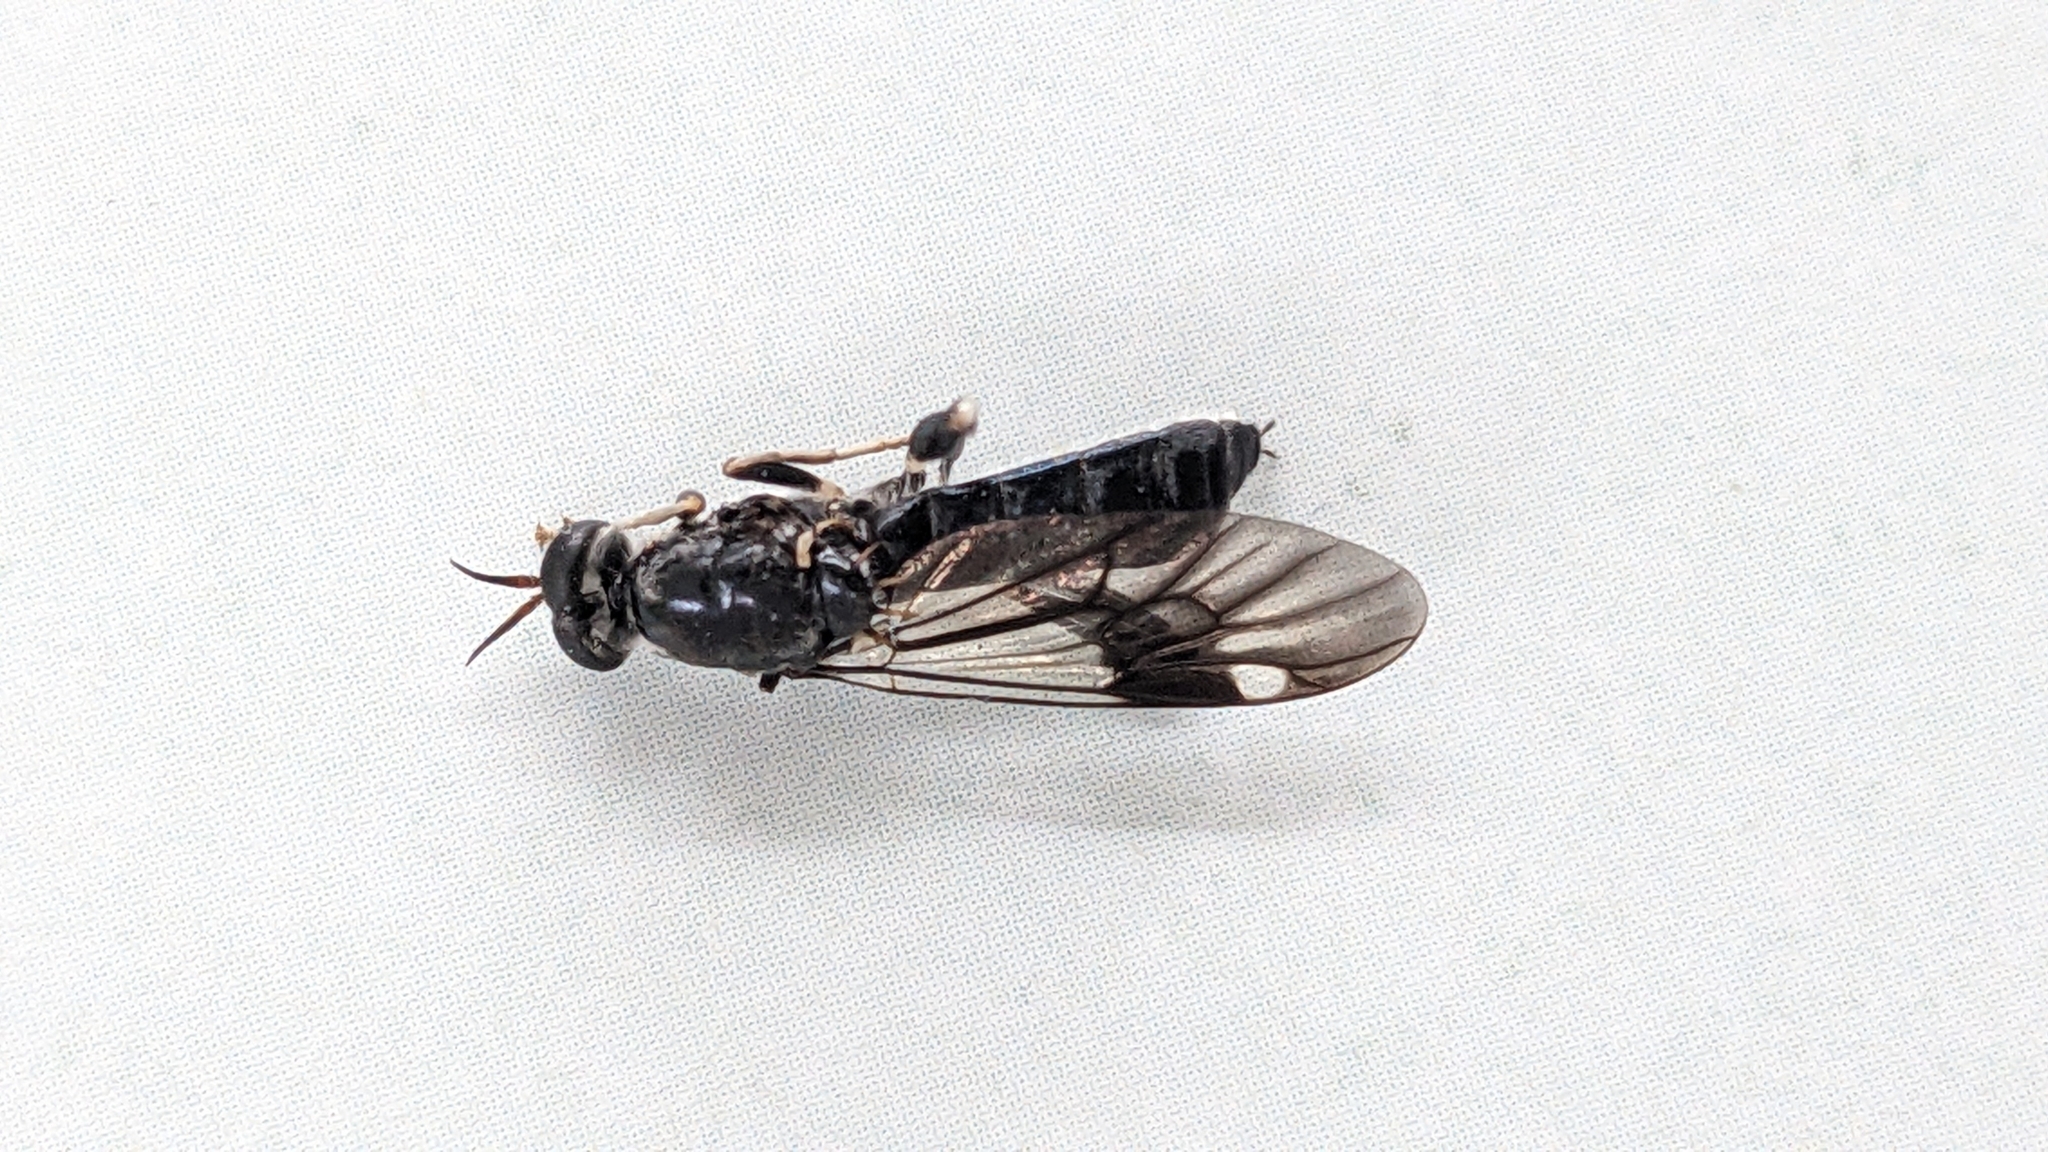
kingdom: Animalia
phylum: Arthropoda
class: Insecta
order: Diptera
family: Stratiomyidae
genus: Exaireta
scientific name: Exaireta spinigera
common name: Blue soldier fly
